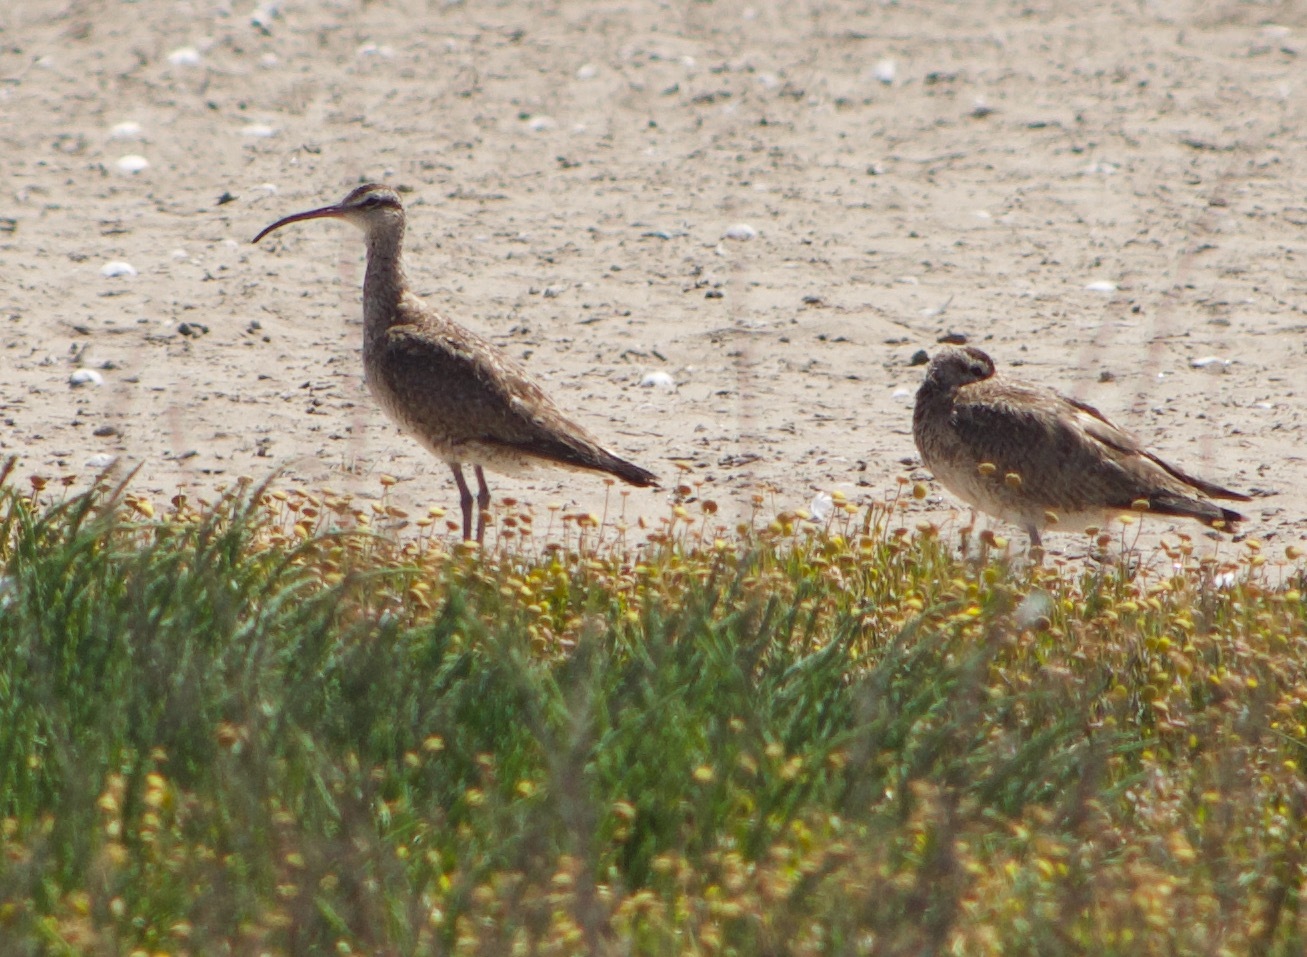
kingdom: Animalia
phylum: Chordata
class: Aves
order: Charadriiformes
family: Scolopacidae
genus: Numenius
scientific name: Numenius hudsonicus
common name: Hudsonian whimbrel
